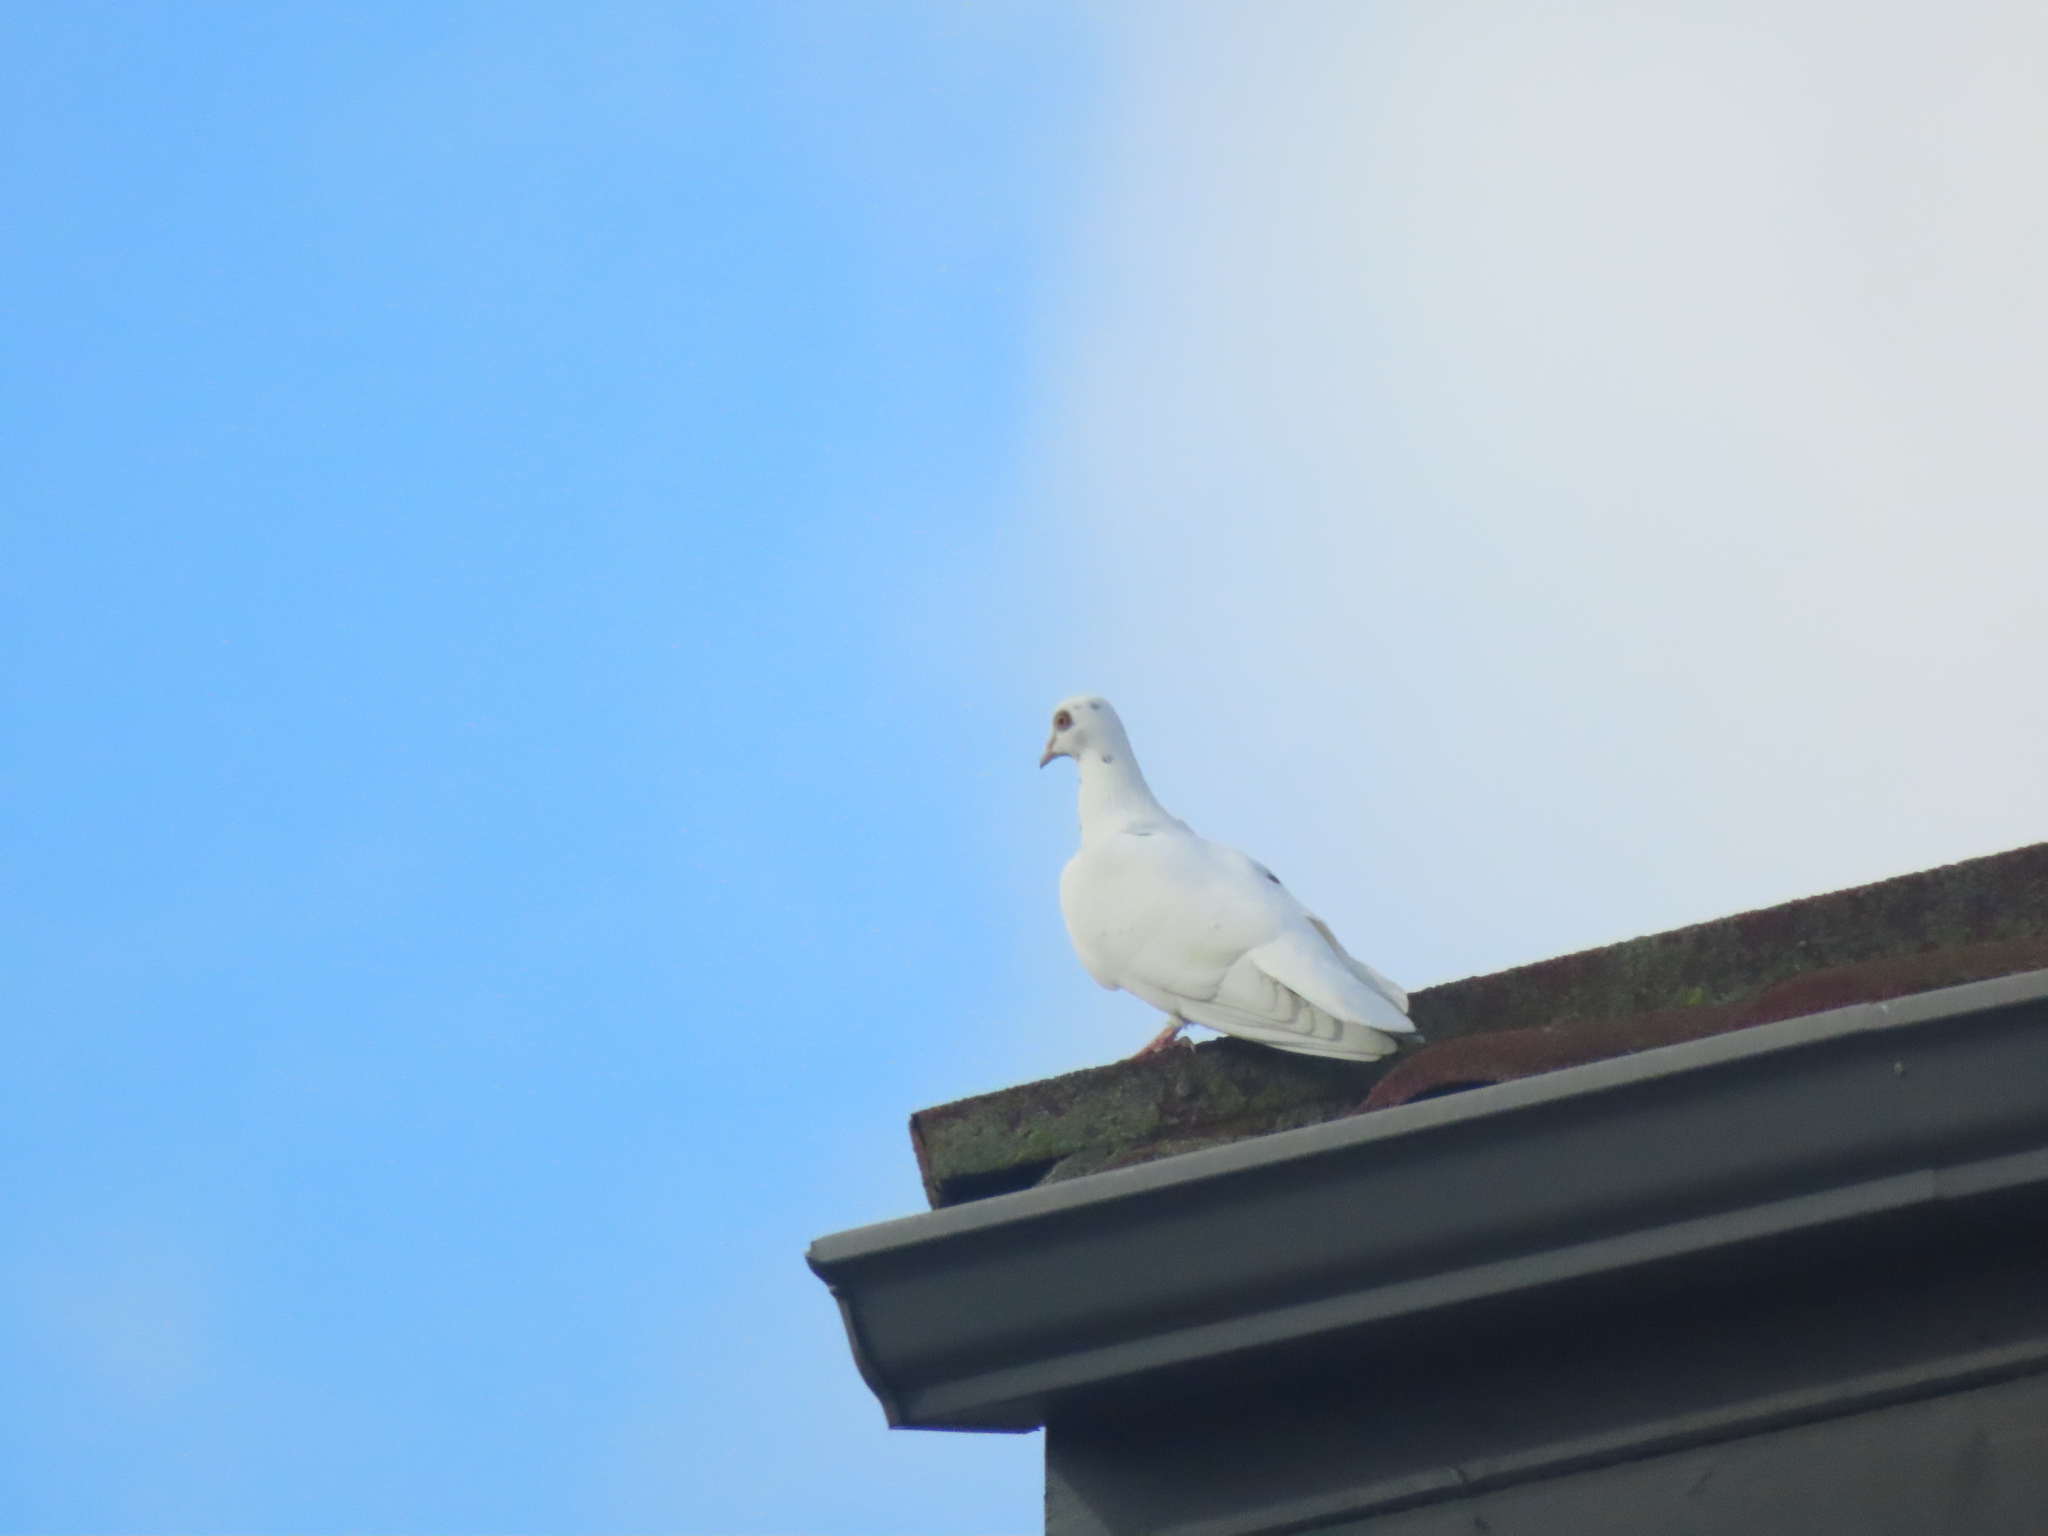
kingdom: Animalia
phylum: Chordata
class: Aves
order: Columbiformes
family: Columbidae
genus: Columba
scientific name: Columba livia
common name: Rock pigeon
